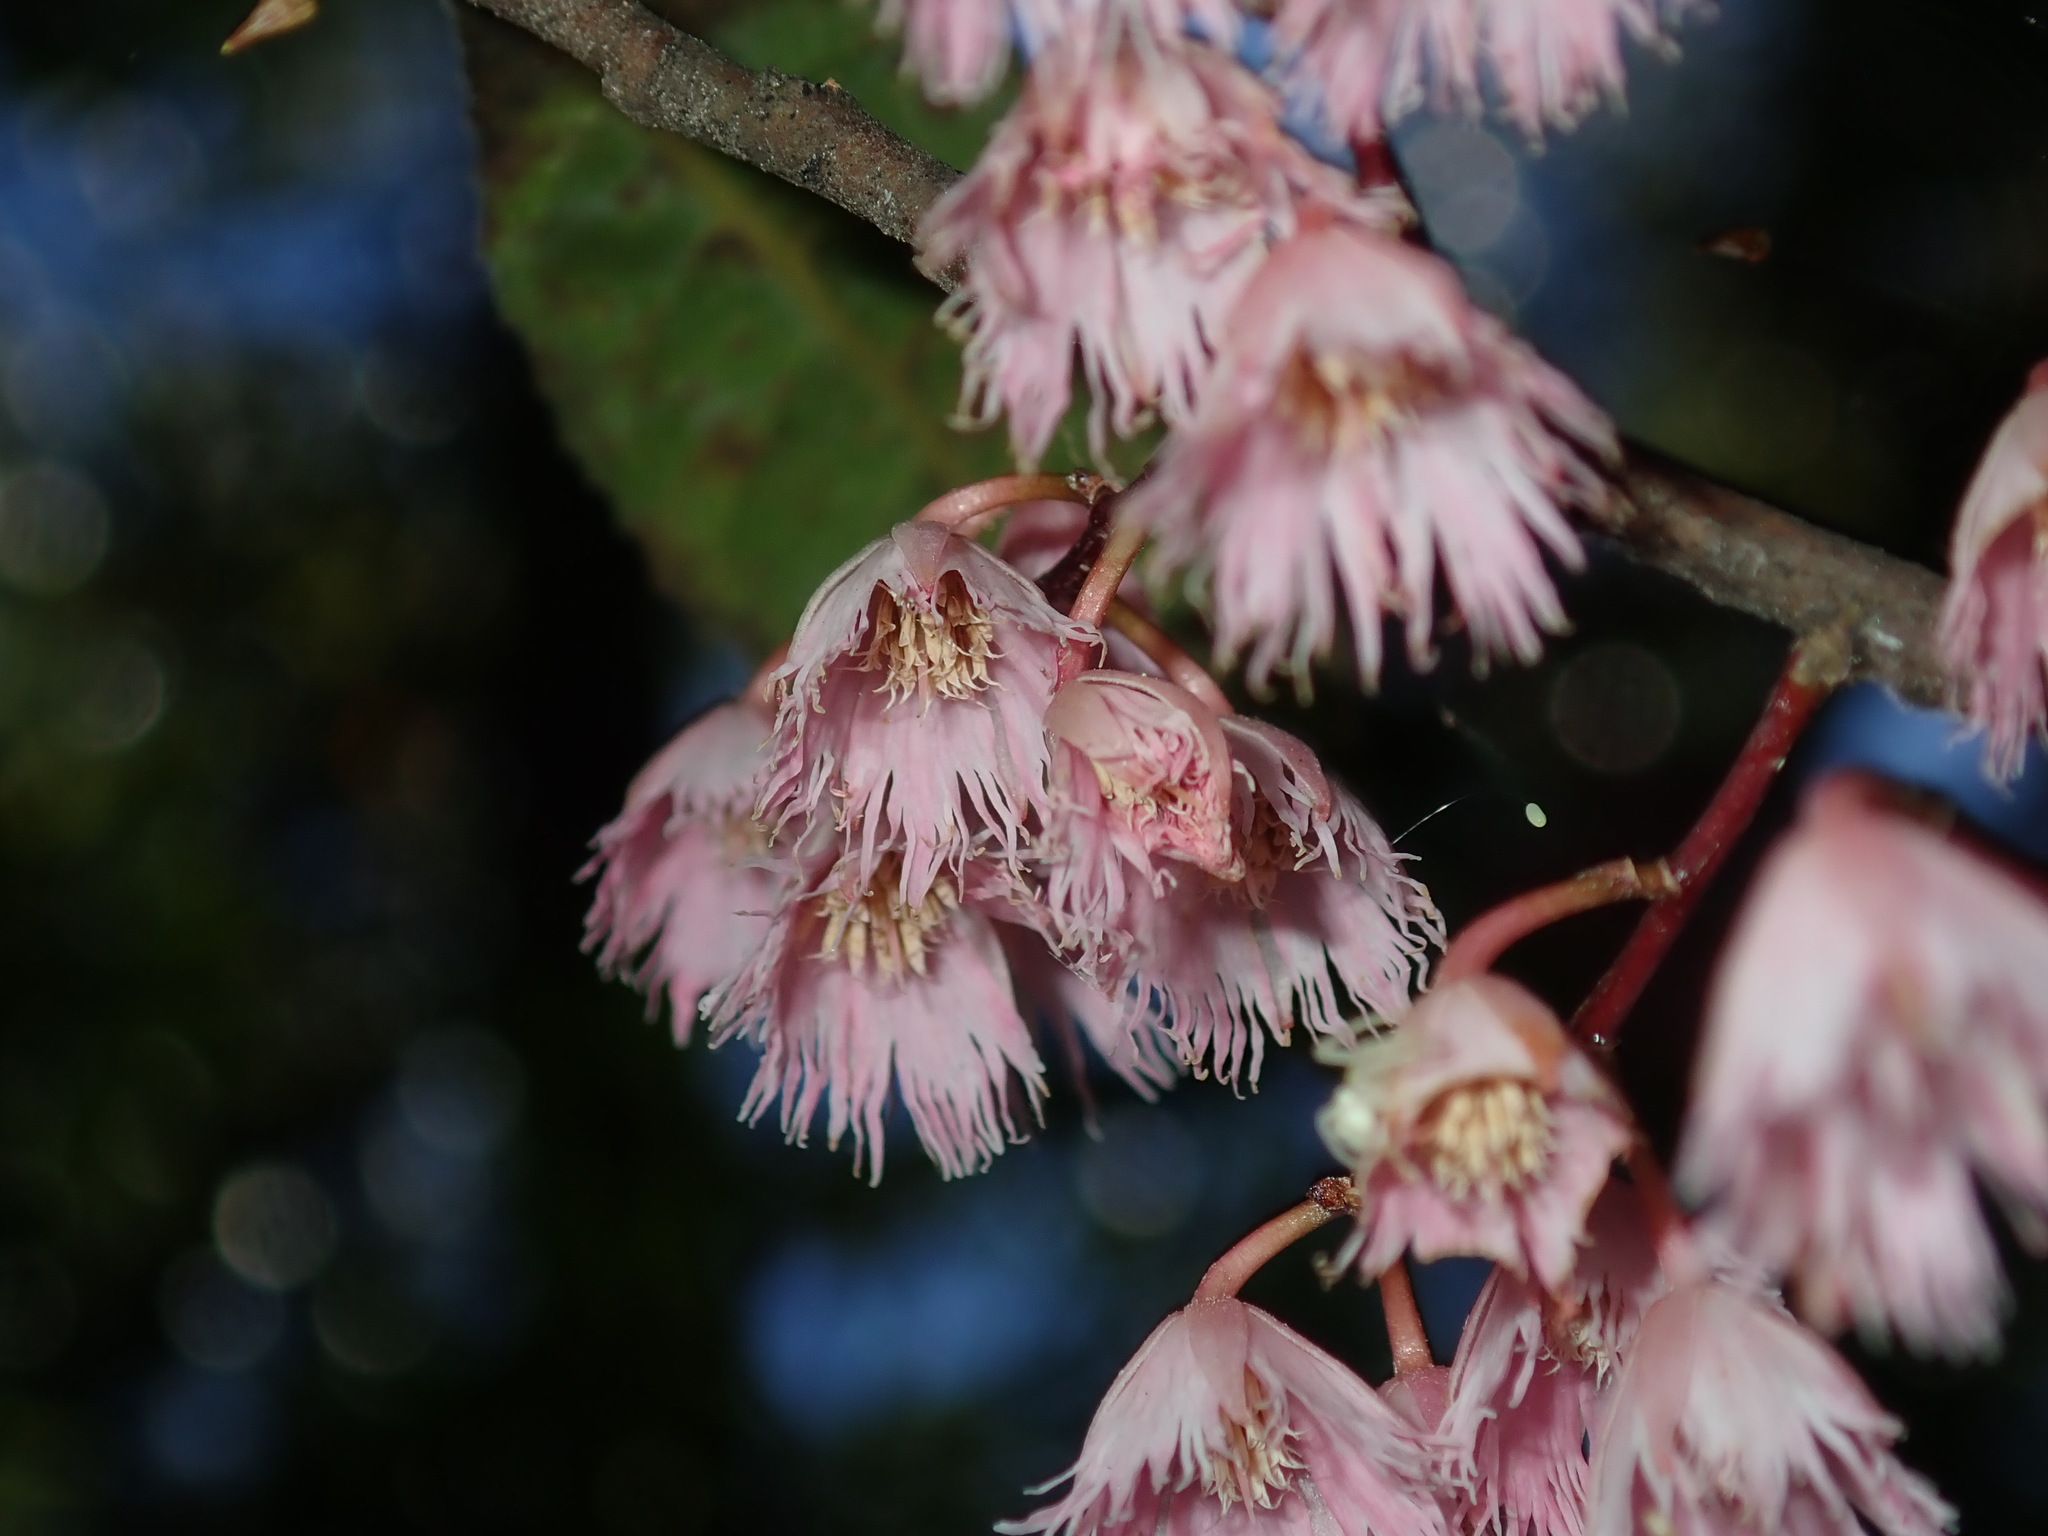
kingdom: Plantae
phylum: Tracheophyta
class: Magnoliopsida
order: Oxalidales
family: Elaeocarpaceae
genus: Elaeocarpus
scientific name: Elaeocarpus reticulatus
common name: Ash quandong
